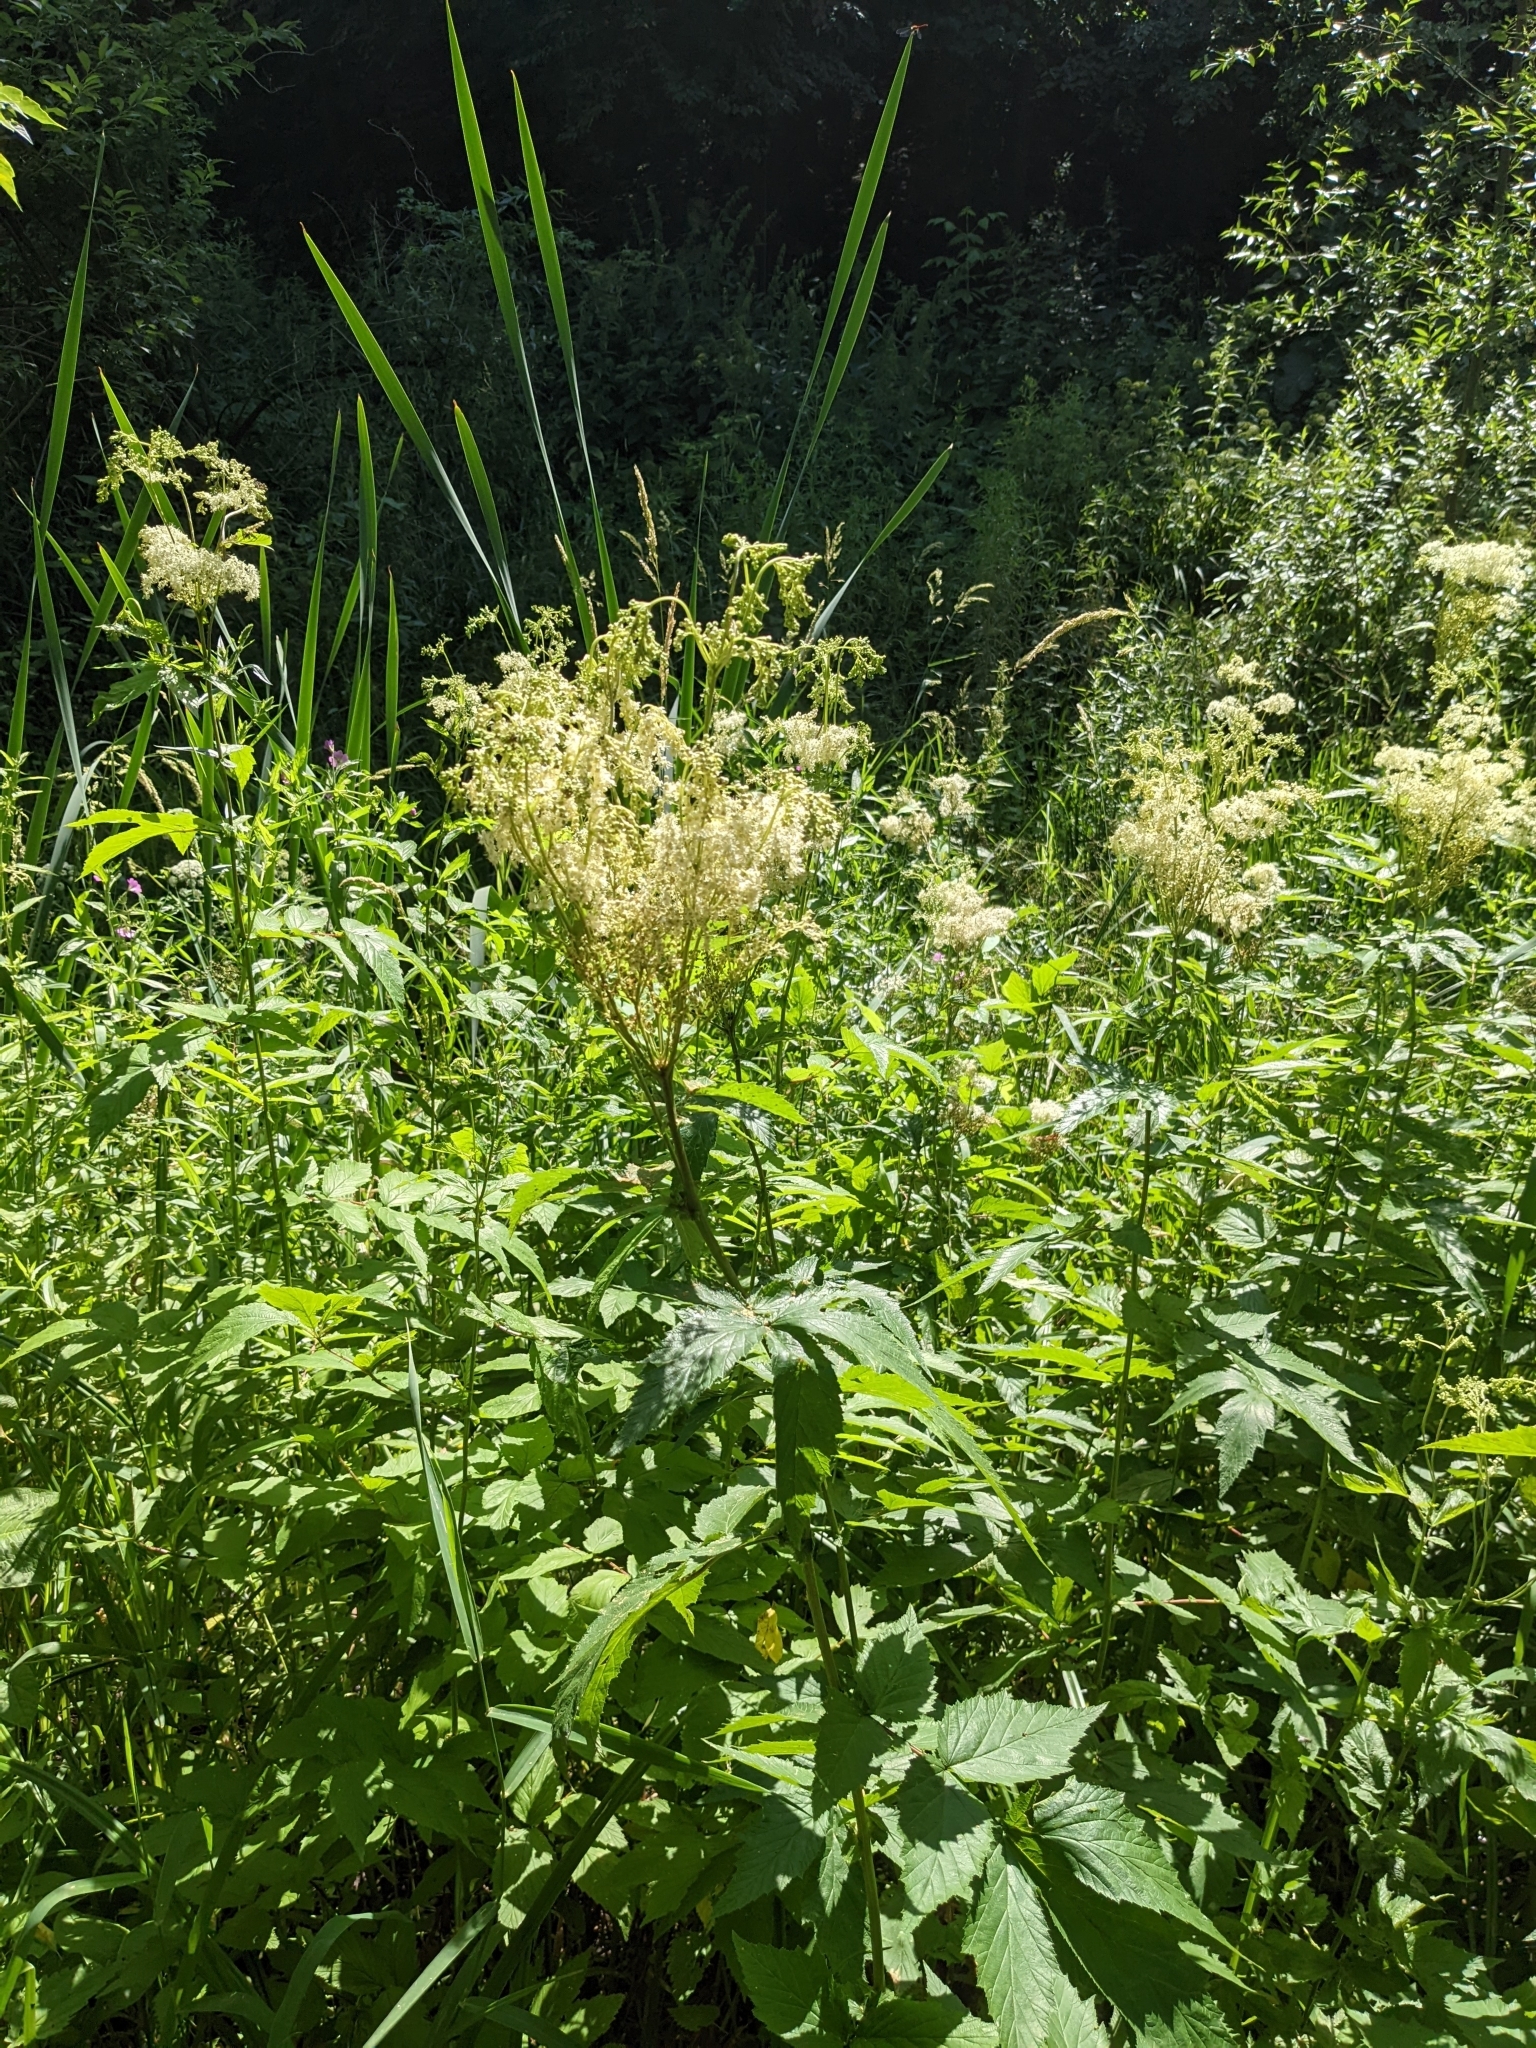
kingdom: Plantae
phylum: Tracheophyta
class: Magnoliopsida
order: Rosales
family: Rosaceae
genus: Filipendula
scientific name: Filipendula ulmaria
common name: Meadowsweet
